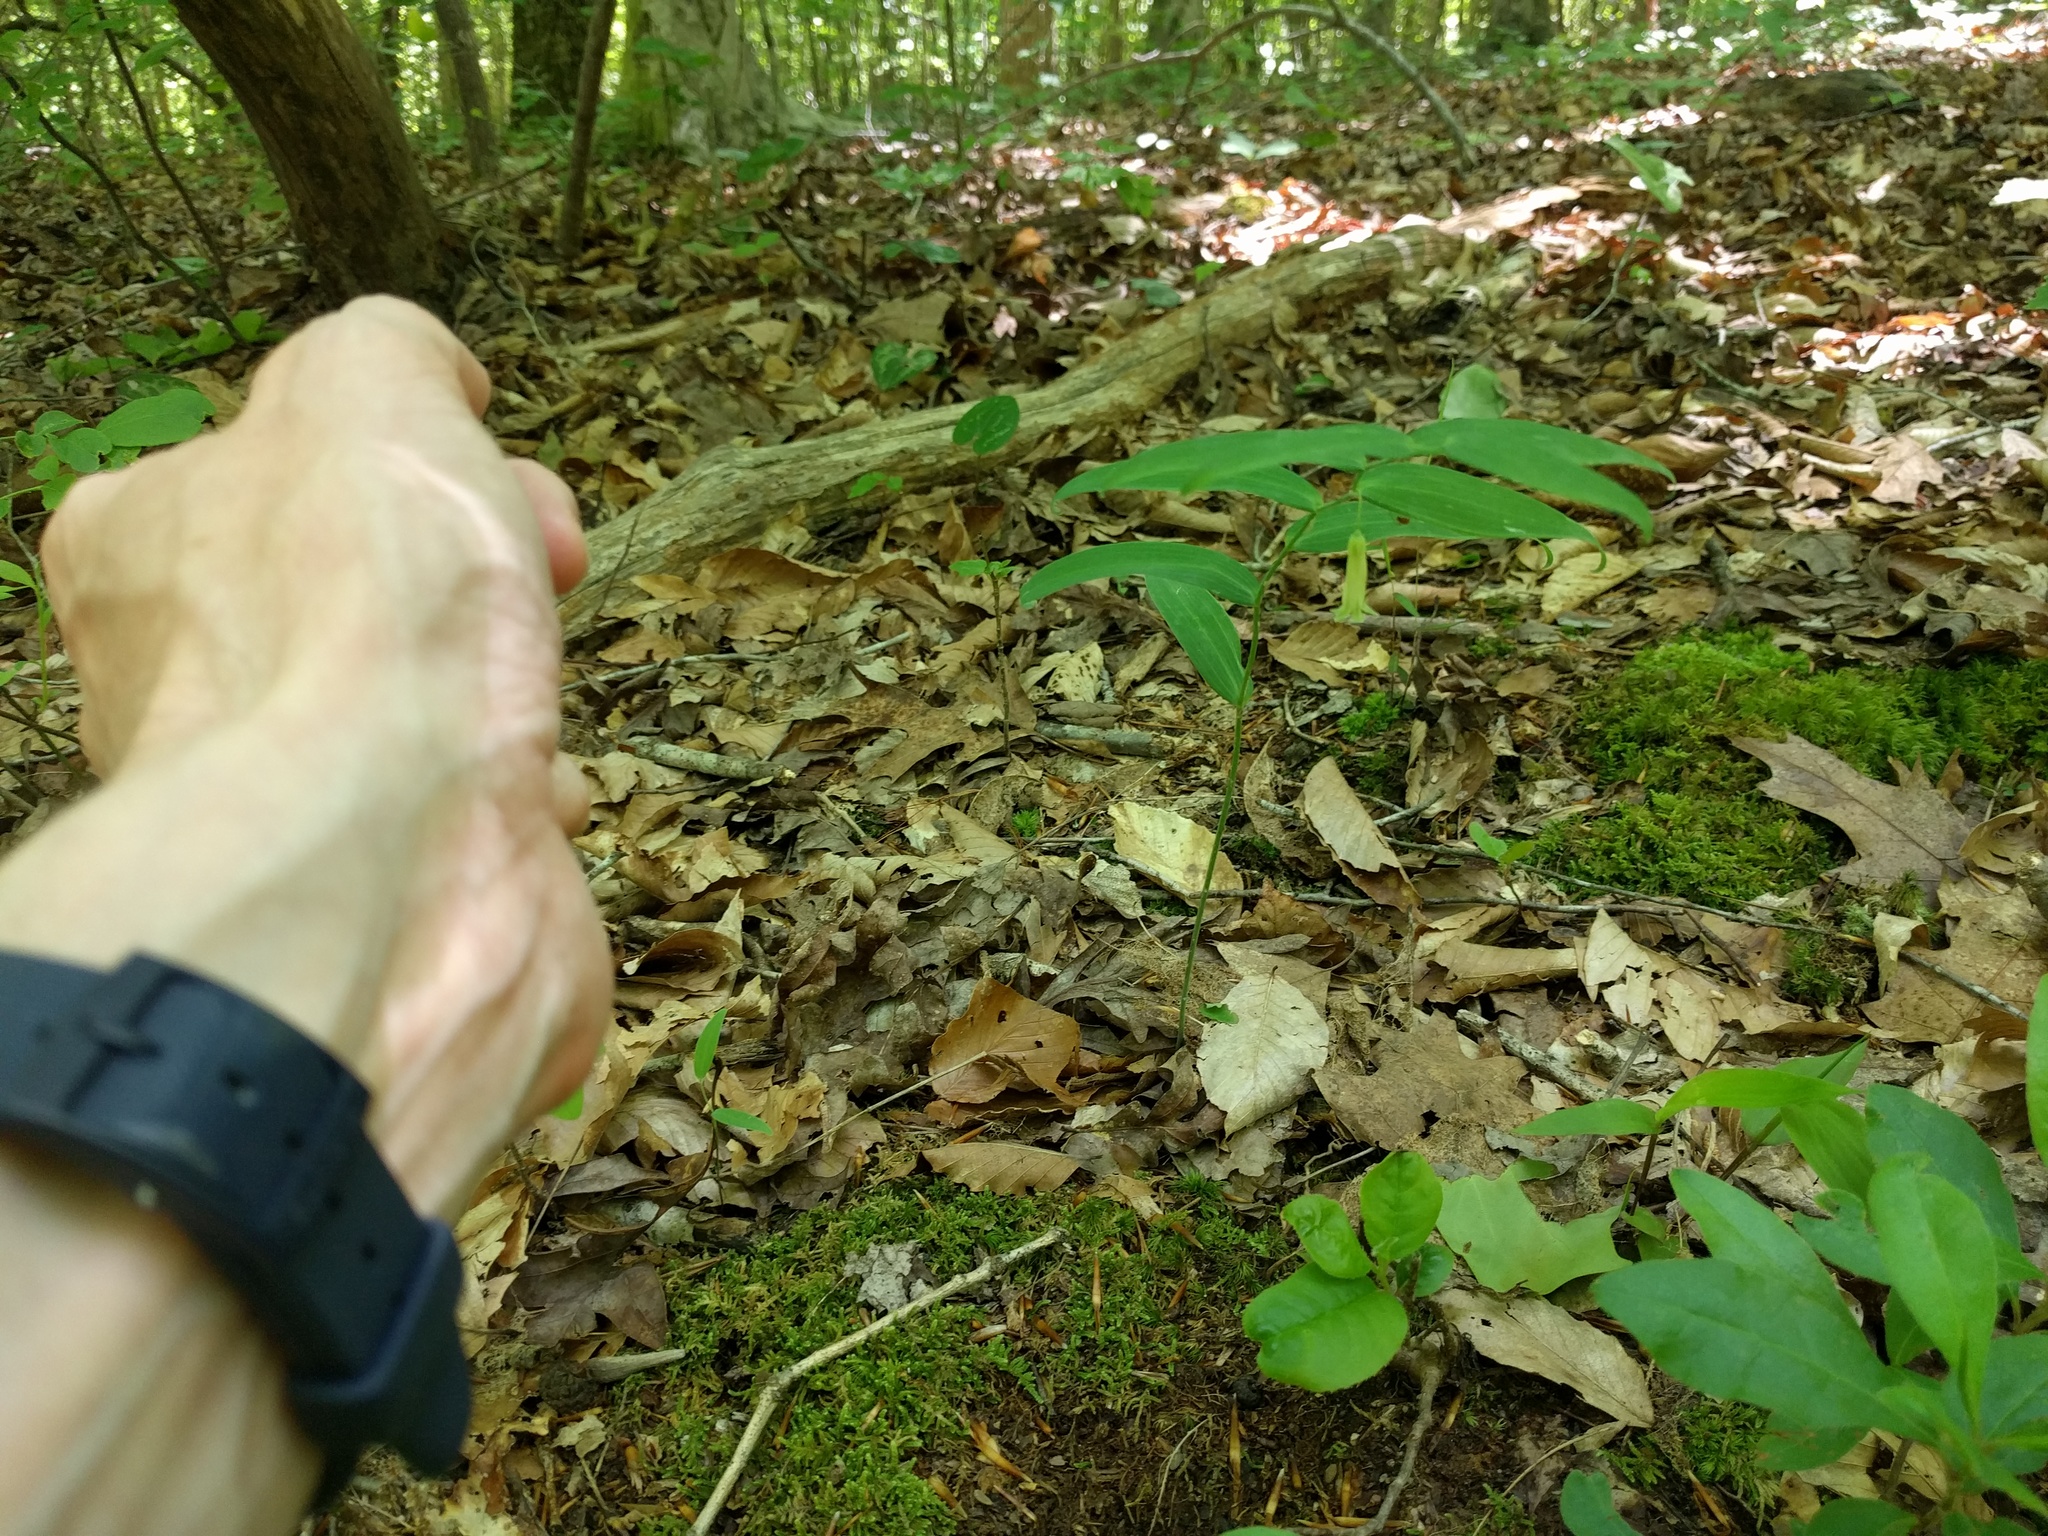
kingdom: Plantae
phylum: Tracheophyta
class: Liliopsida
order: Liliales
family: Colchicaceae
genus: Uvularia
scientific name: Uvularia sessilifolia
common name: Straw-lily
